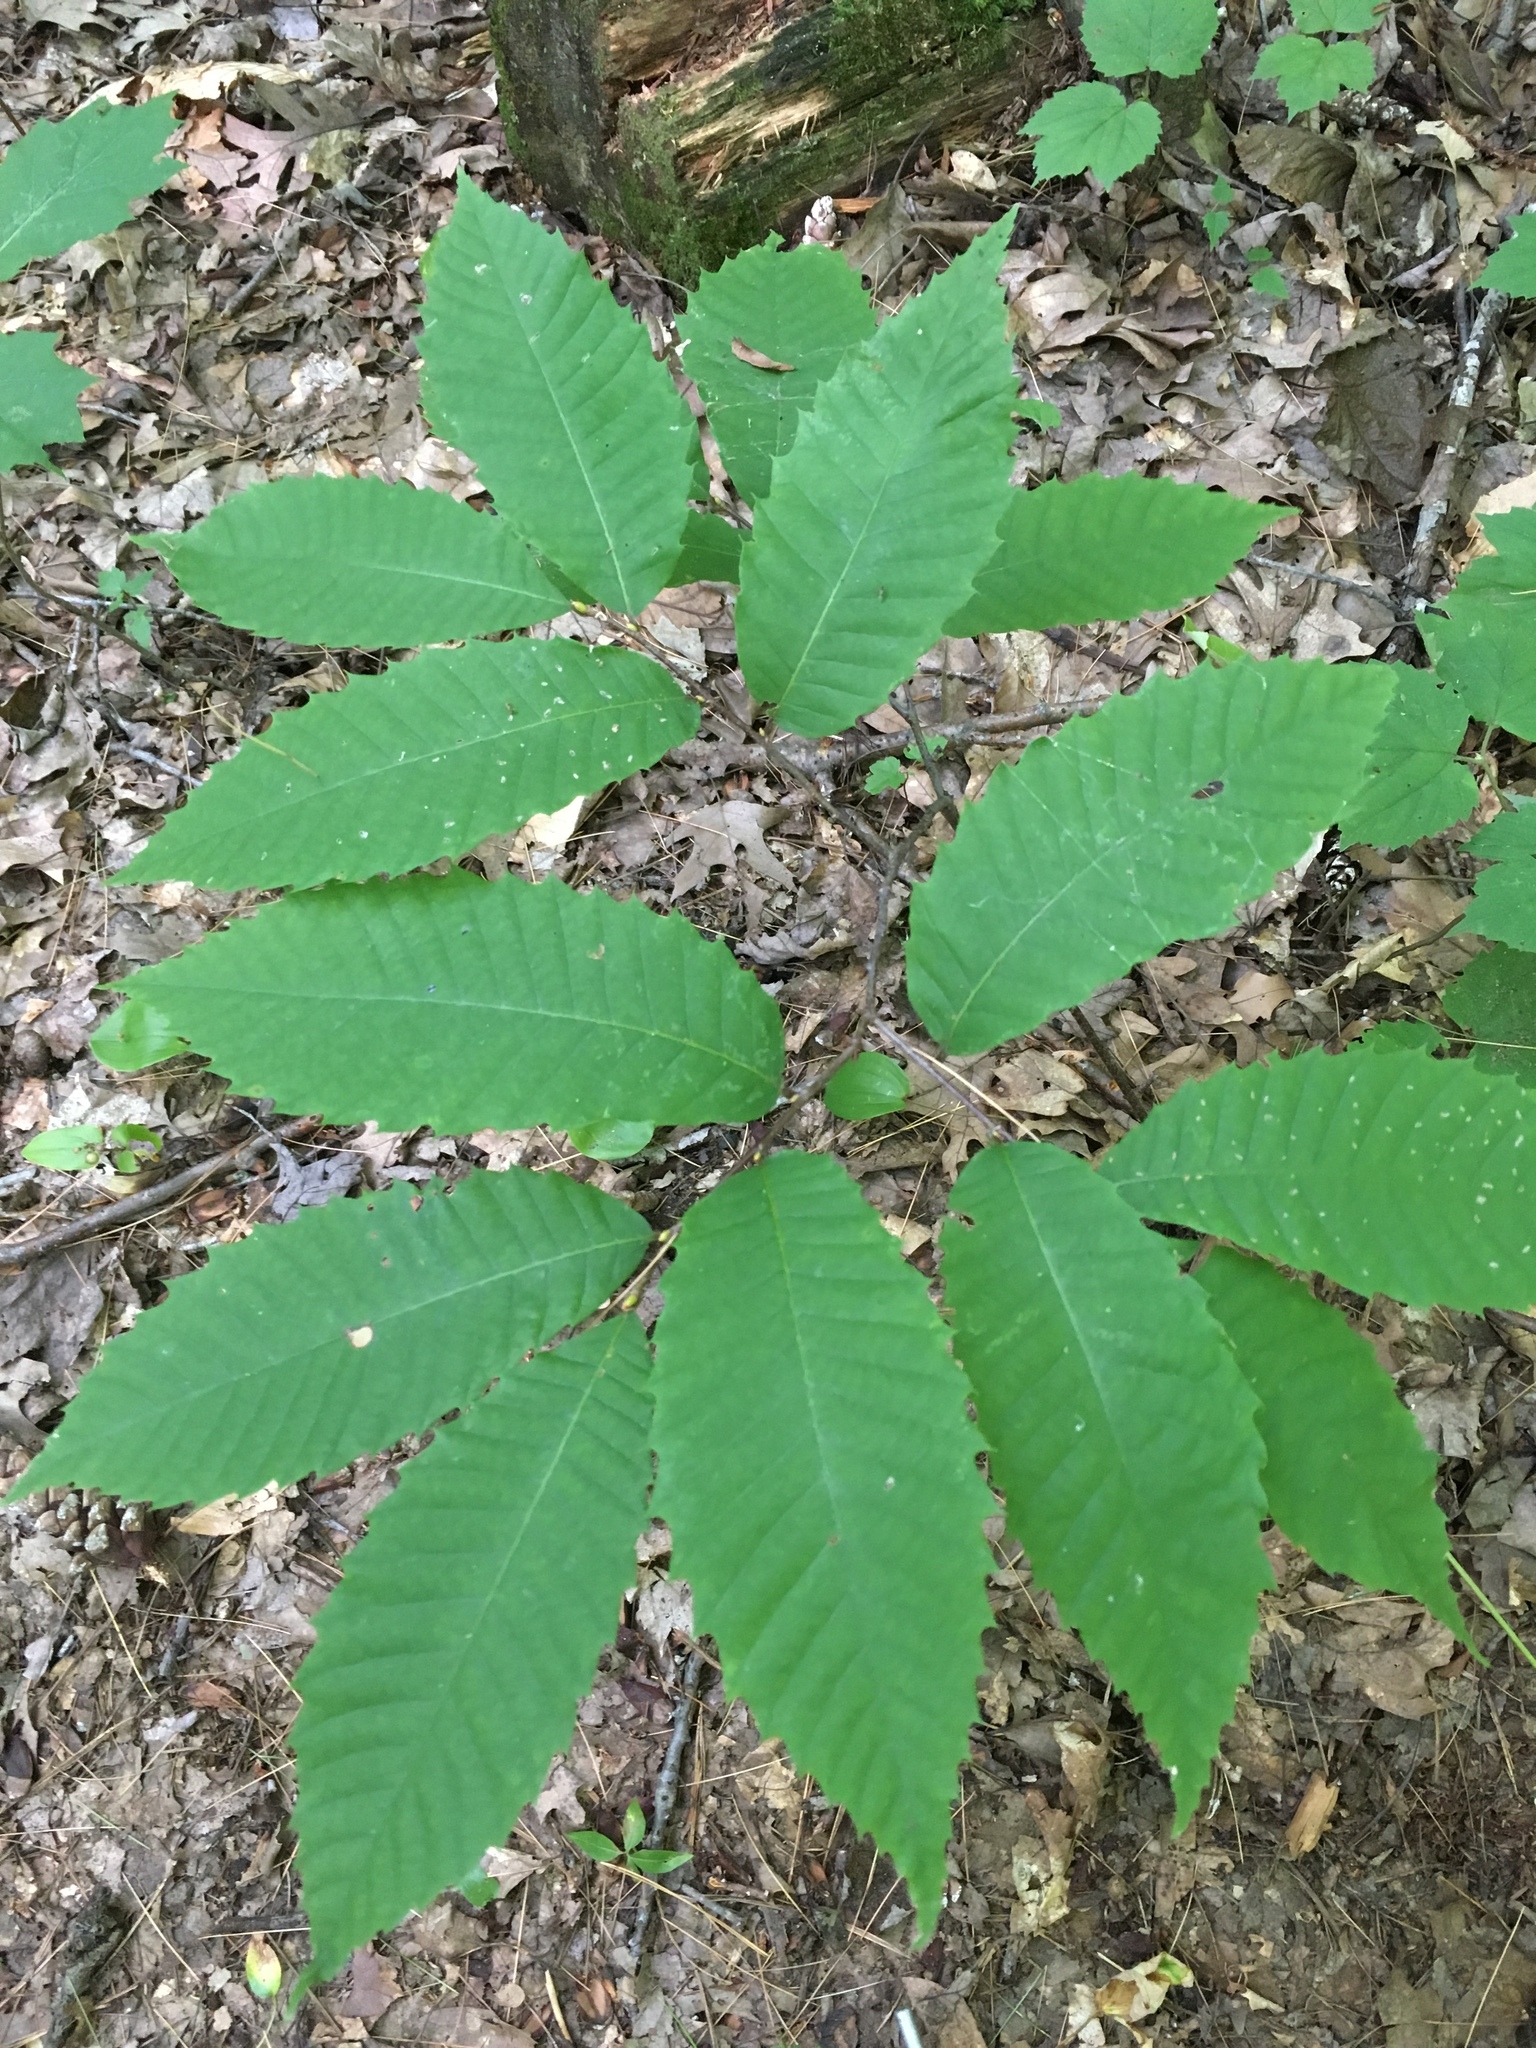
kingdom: Plantae
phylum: Tracheophyta
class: Magnoliopsida
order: Fagales
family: Fagaceae
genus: Castanea
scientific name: Castanea dentata
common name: American chestnut
